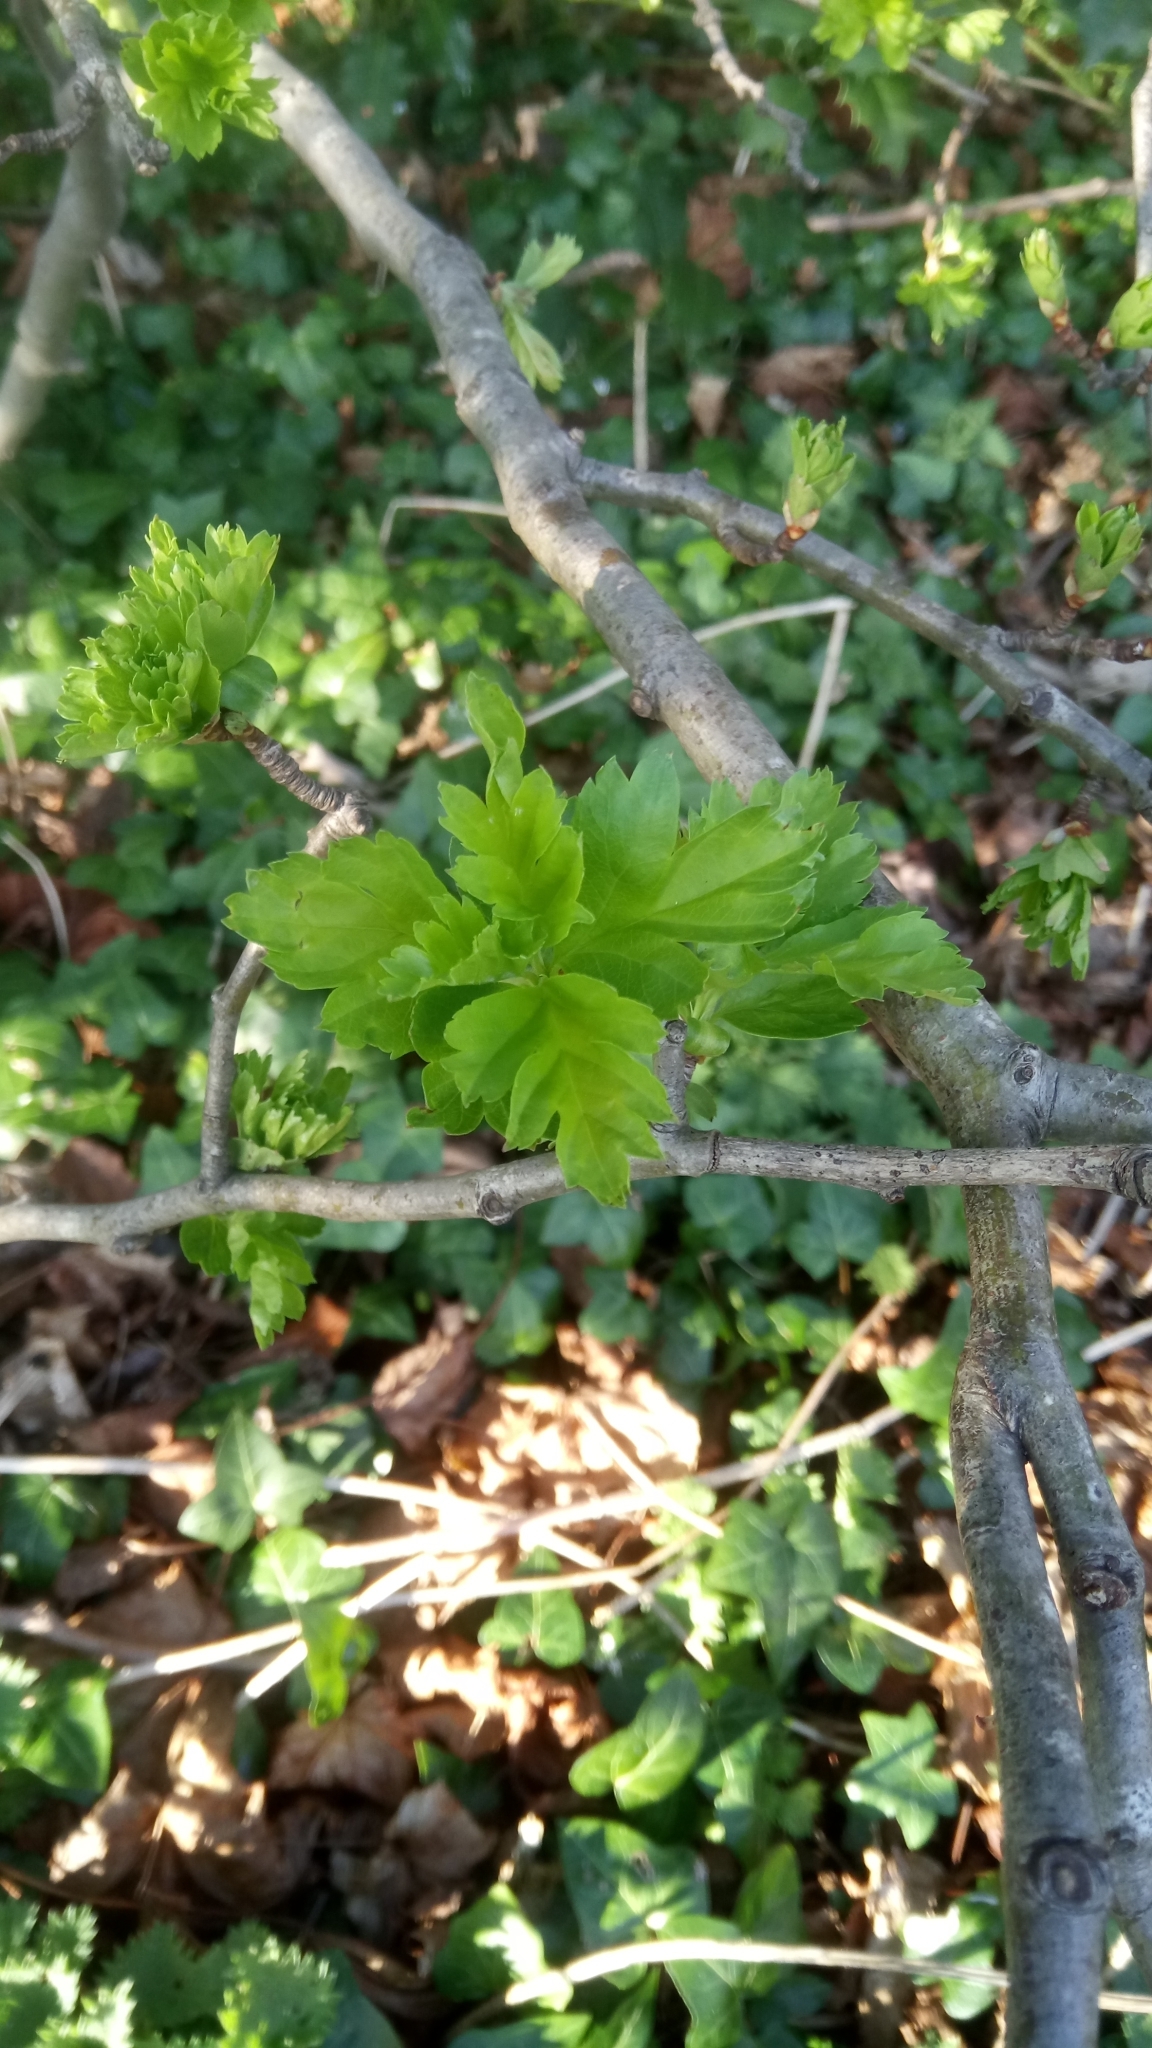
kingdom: Plantae
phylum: Tracheophyta
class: Magnoliopsida
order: Rosales
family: Rosaceae
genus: Crataegus
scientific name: Crataegus monogyna
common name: Hawthorn
